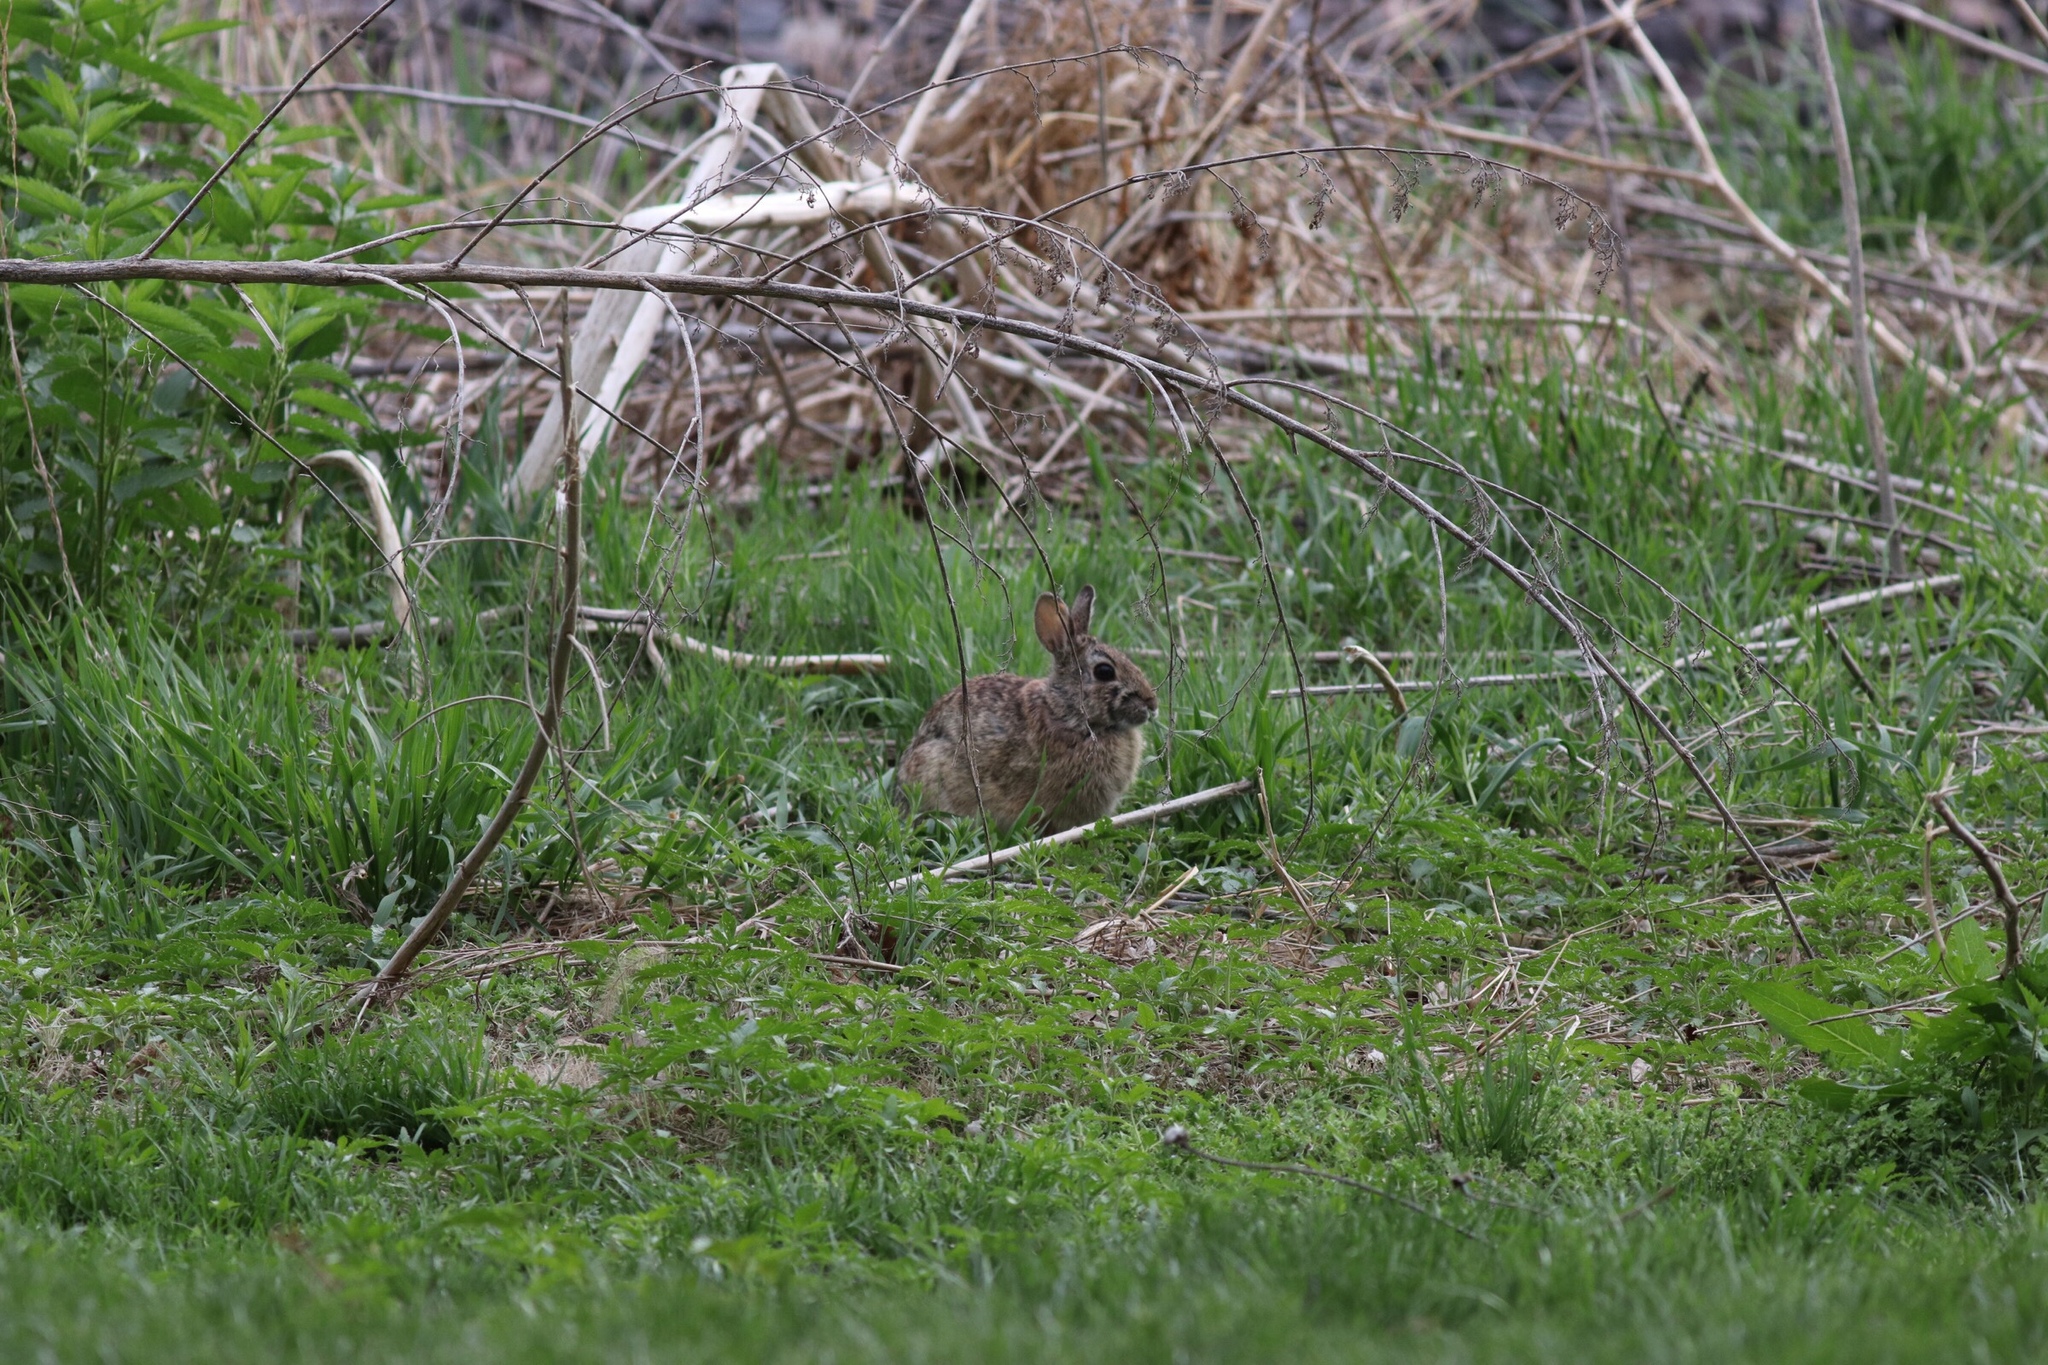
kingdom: Animalia
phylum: Chordata
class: Mammalia
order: Lagomorpha
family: Leporidae
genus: Sylvilagus
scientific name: Sylvilagus floridanus
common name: Eastern cottontail
